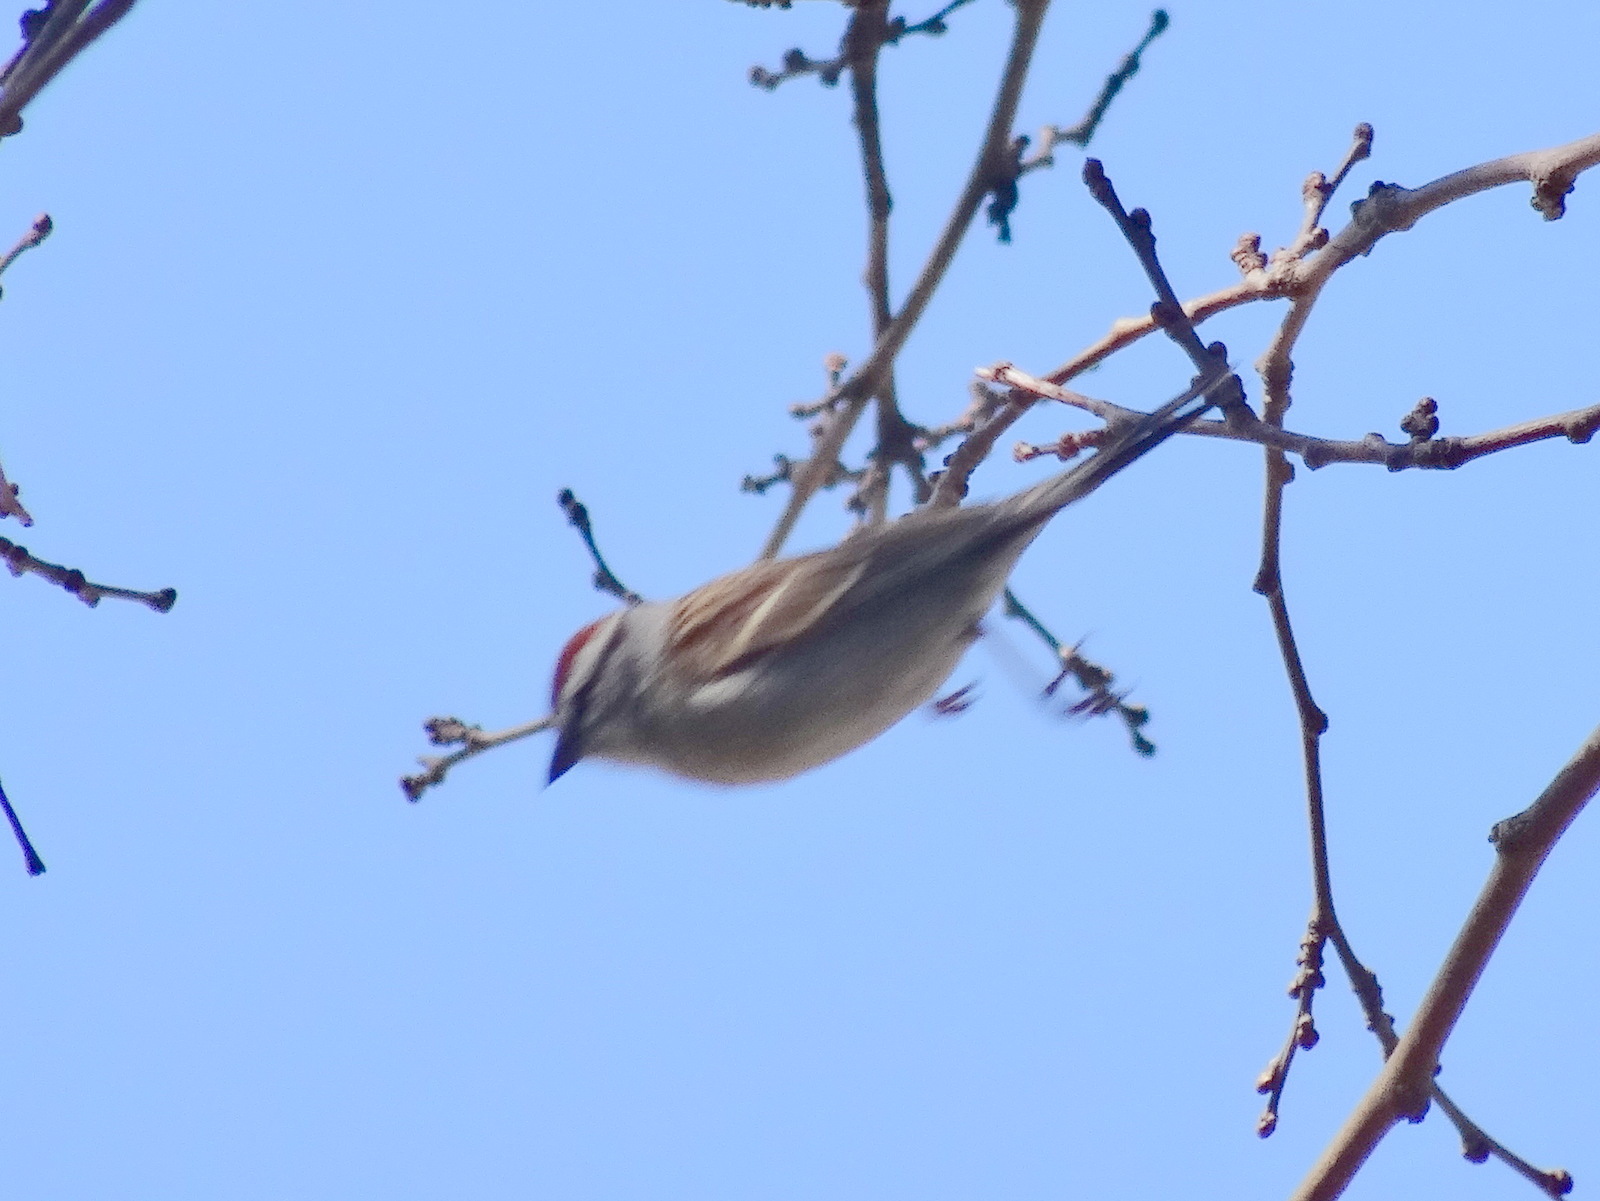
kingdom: Animalia
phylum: Chordata
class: Aves
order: Passeriformes
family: Passerellidae
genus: Spizella
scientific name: Spizella passerina
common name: Chipping sparrow
